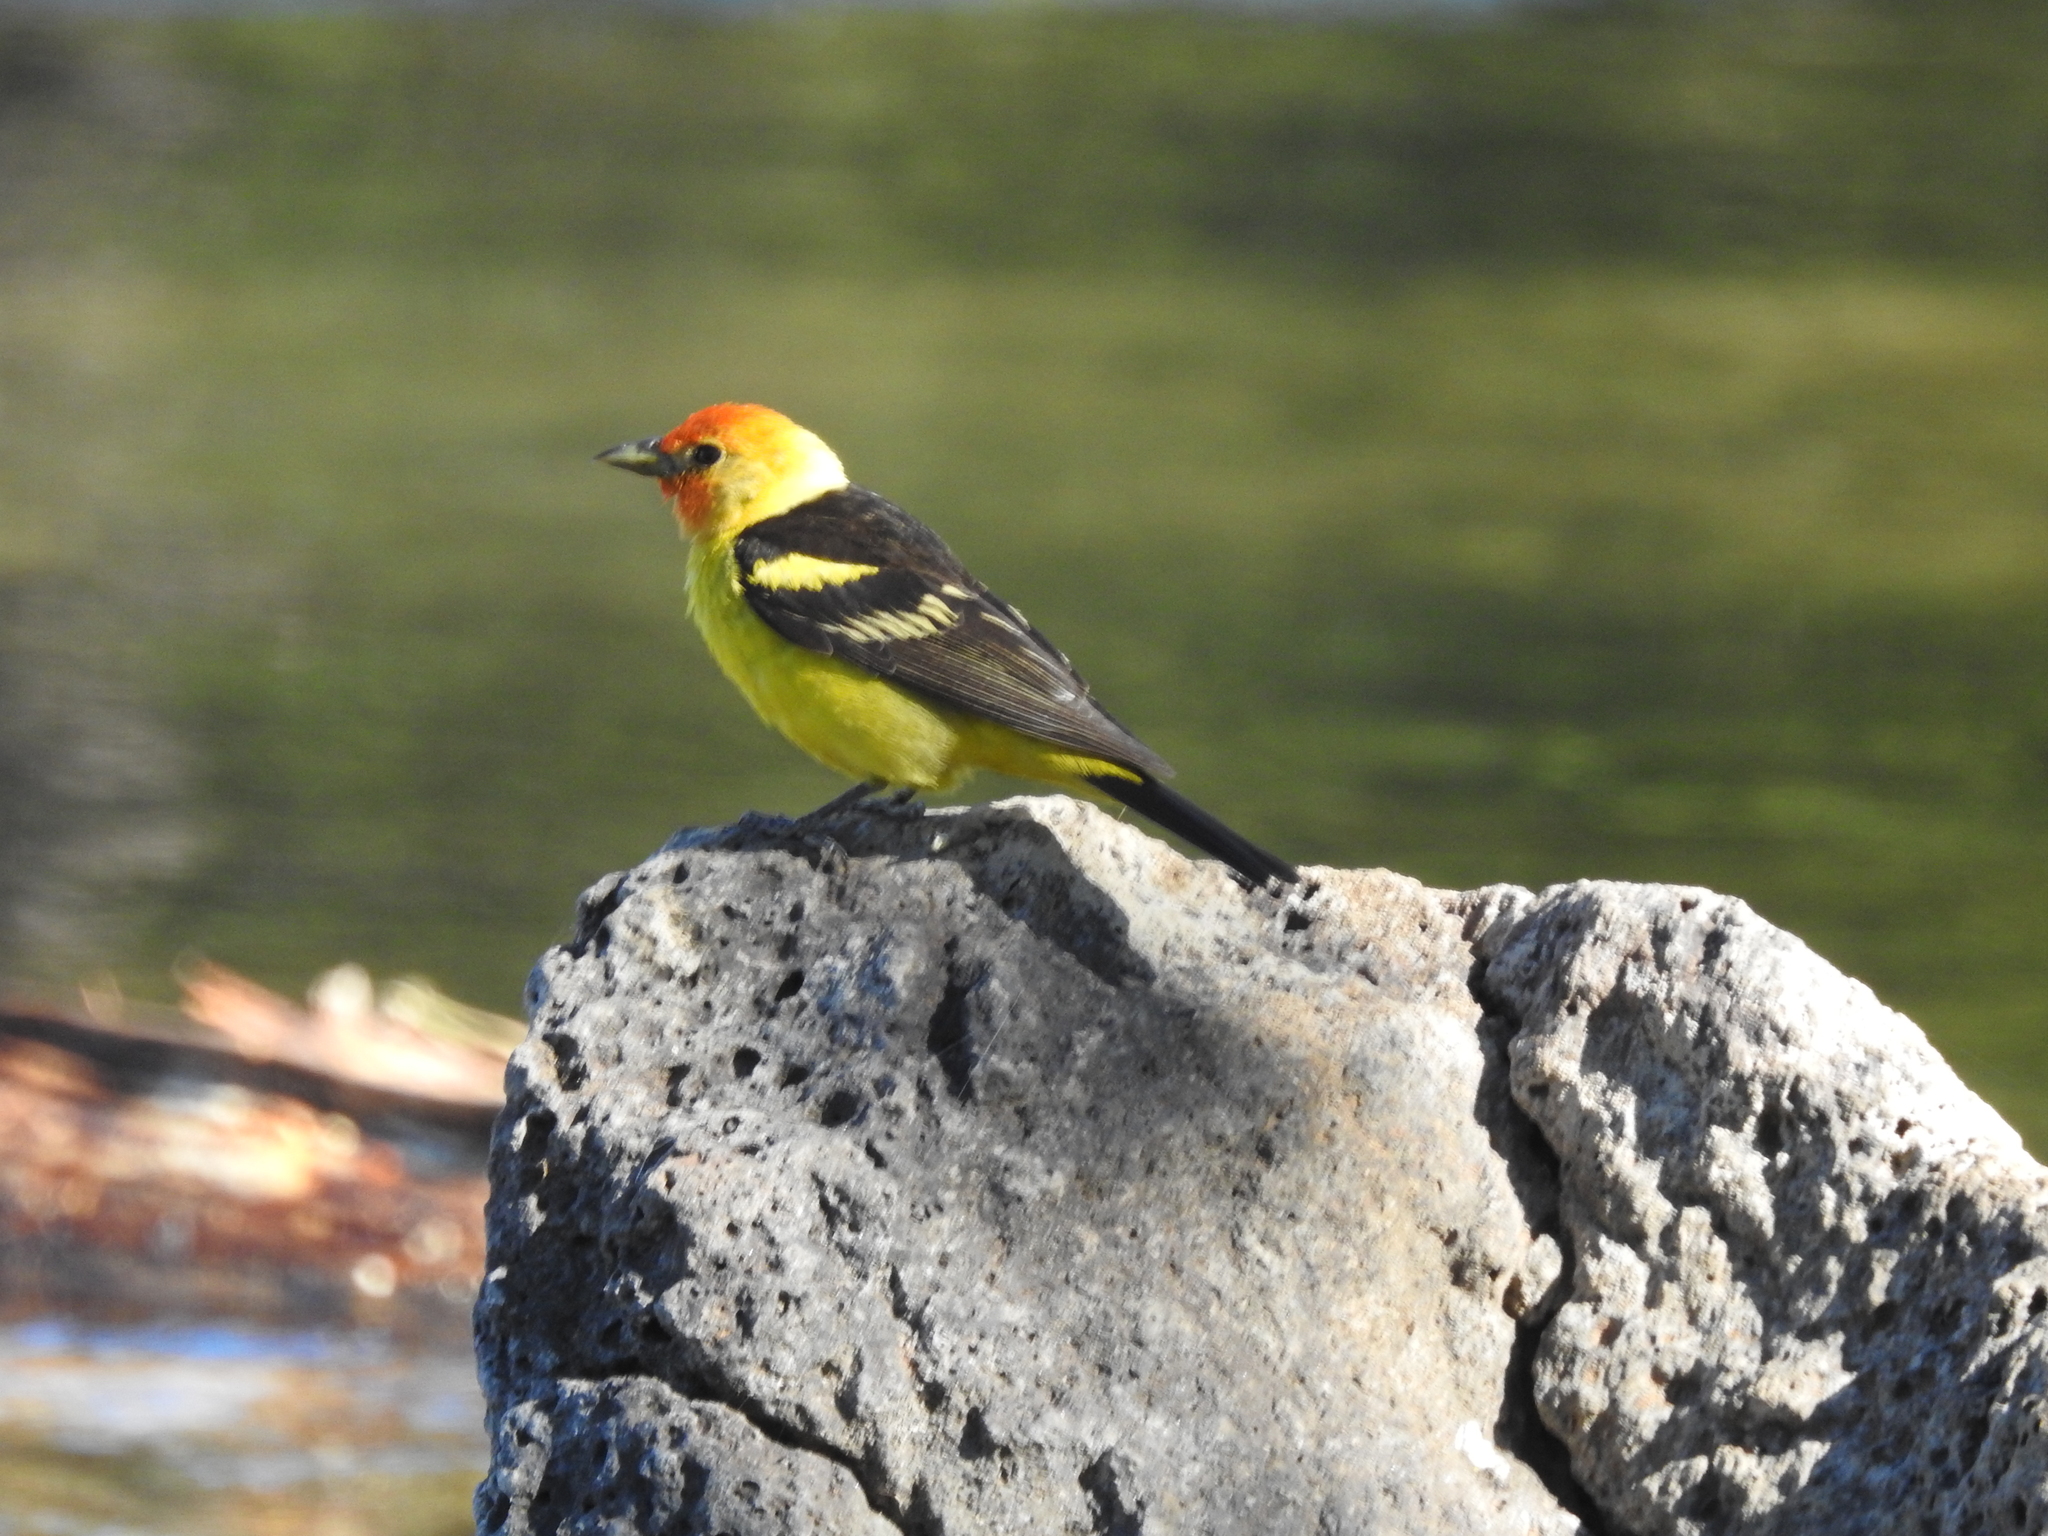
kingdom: Animalia
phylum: Chordata
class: Aves
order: Passeriformes
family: Cardinalidae
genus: Piranga
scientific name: Piranga ludoviciana
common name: Western tanager
